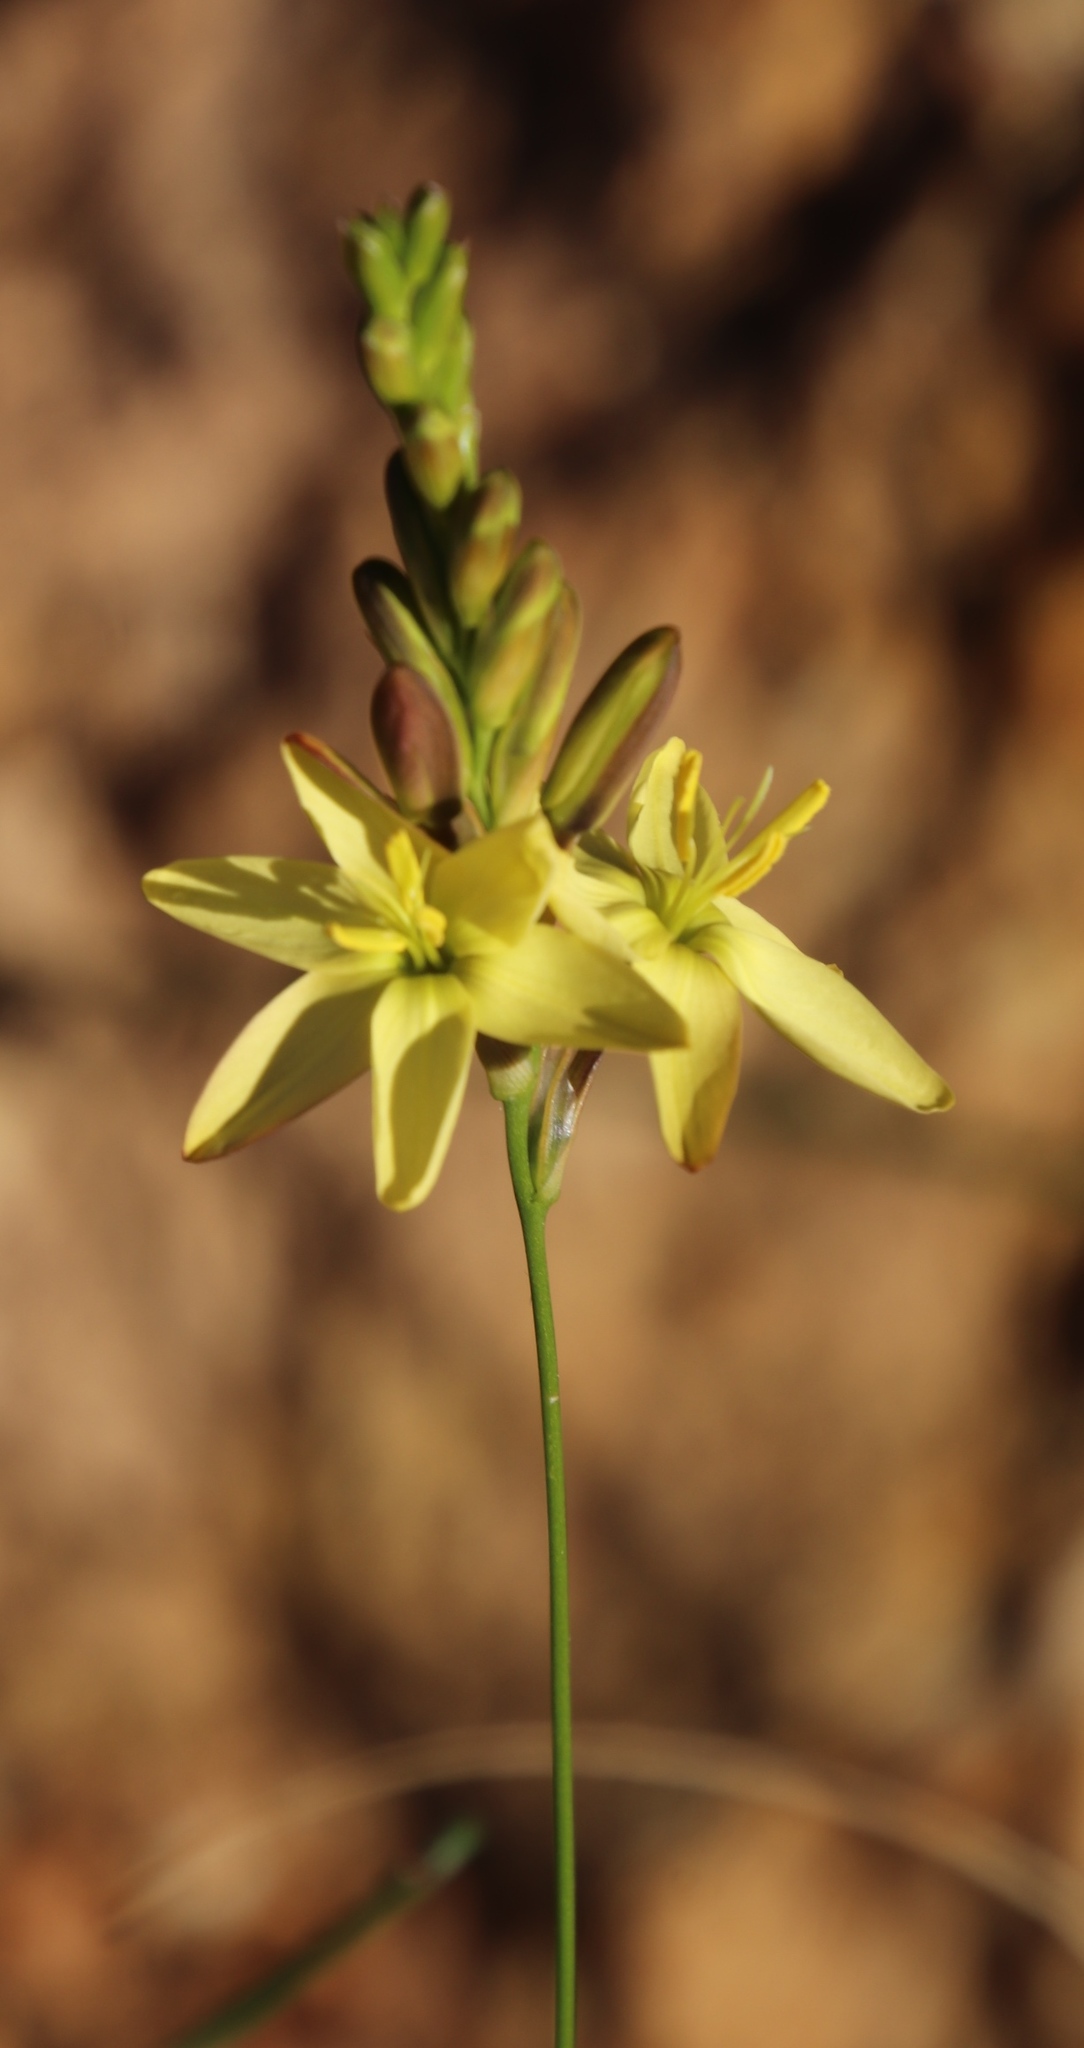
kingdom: Plantae
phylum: Tracheophyta
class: Liliopsida
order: Asparagales
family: Iridaceae
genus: Ixia
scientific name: Ixia odorata
